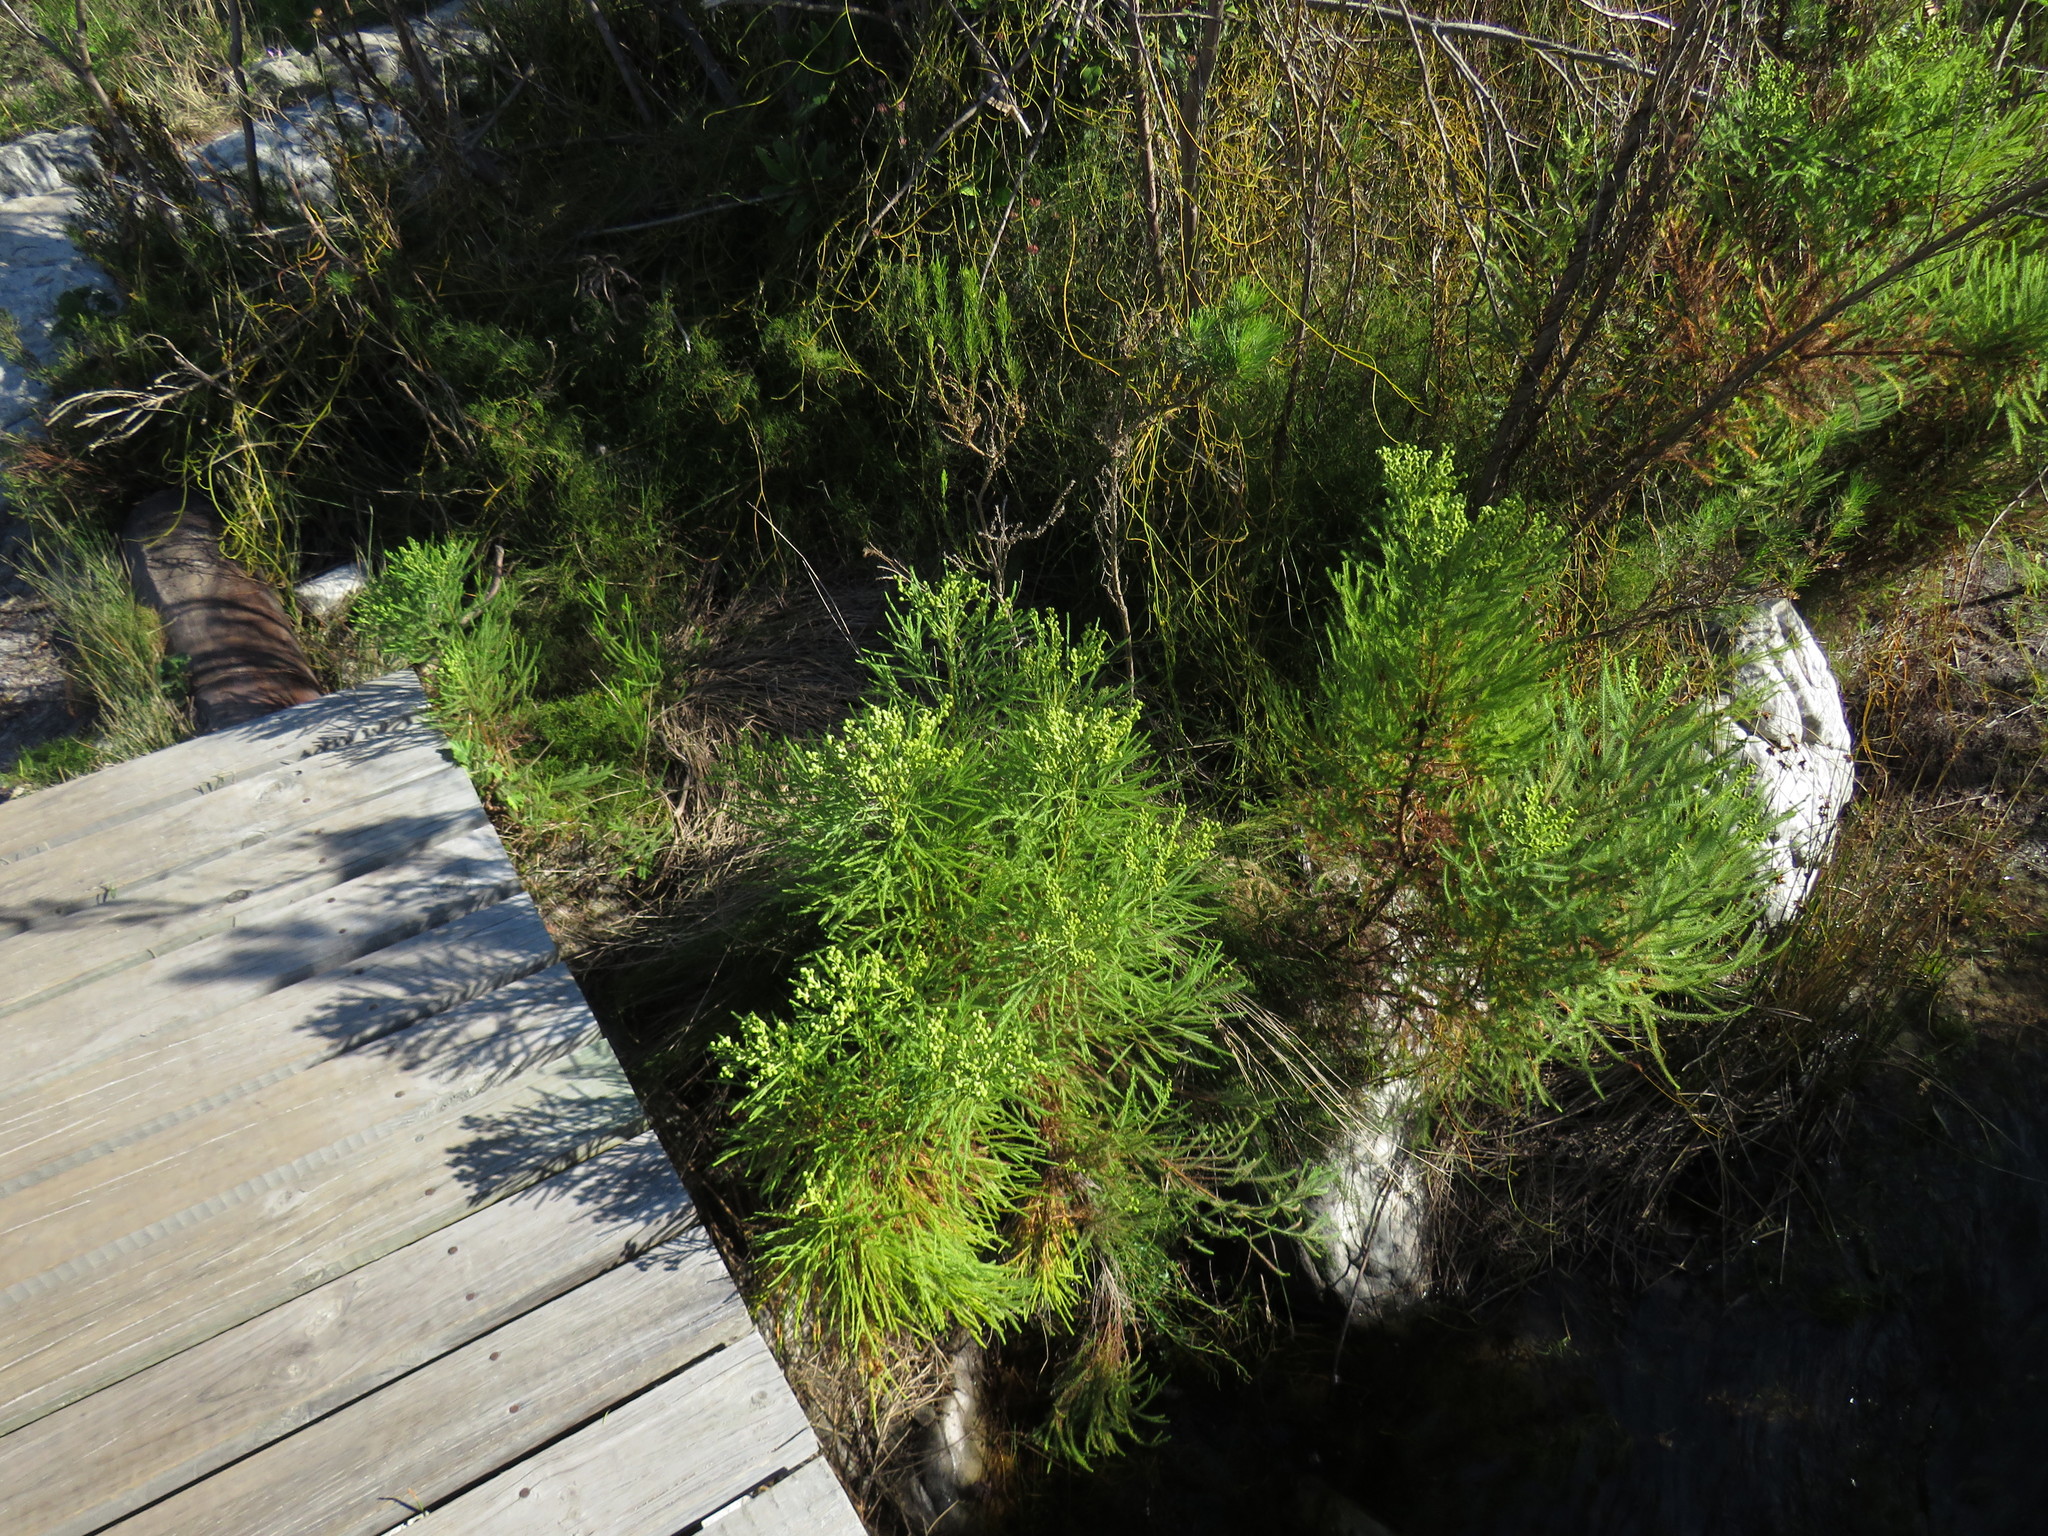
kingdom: Plantae
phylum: Tracheophyta
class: Magnoliopsida
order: Bruniales
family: Bruniaceae
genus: Berzelia
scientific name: Berzelia lanuginosa
